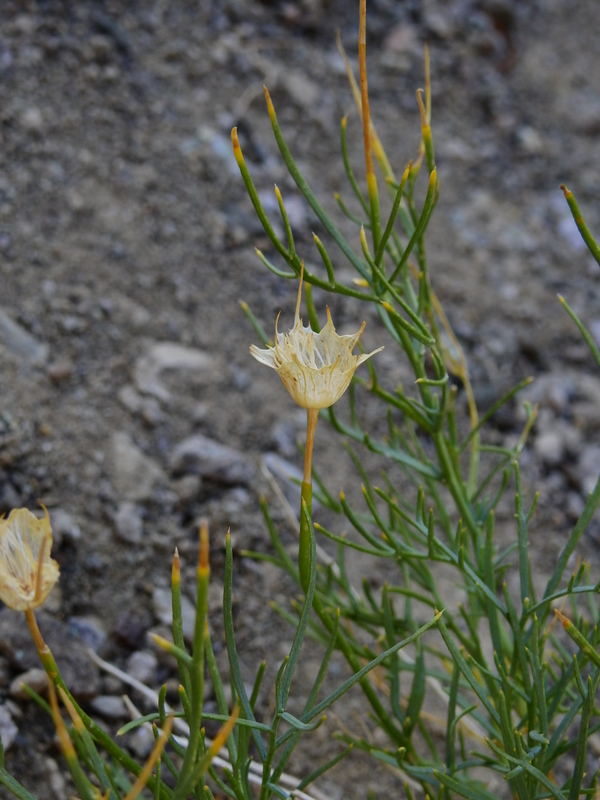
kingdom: Plantae
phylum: Tracheophyta
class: Magnoliopsida
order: Asterales
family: Calyceraceae
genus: Boopis
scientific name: Boopis anthemoides
